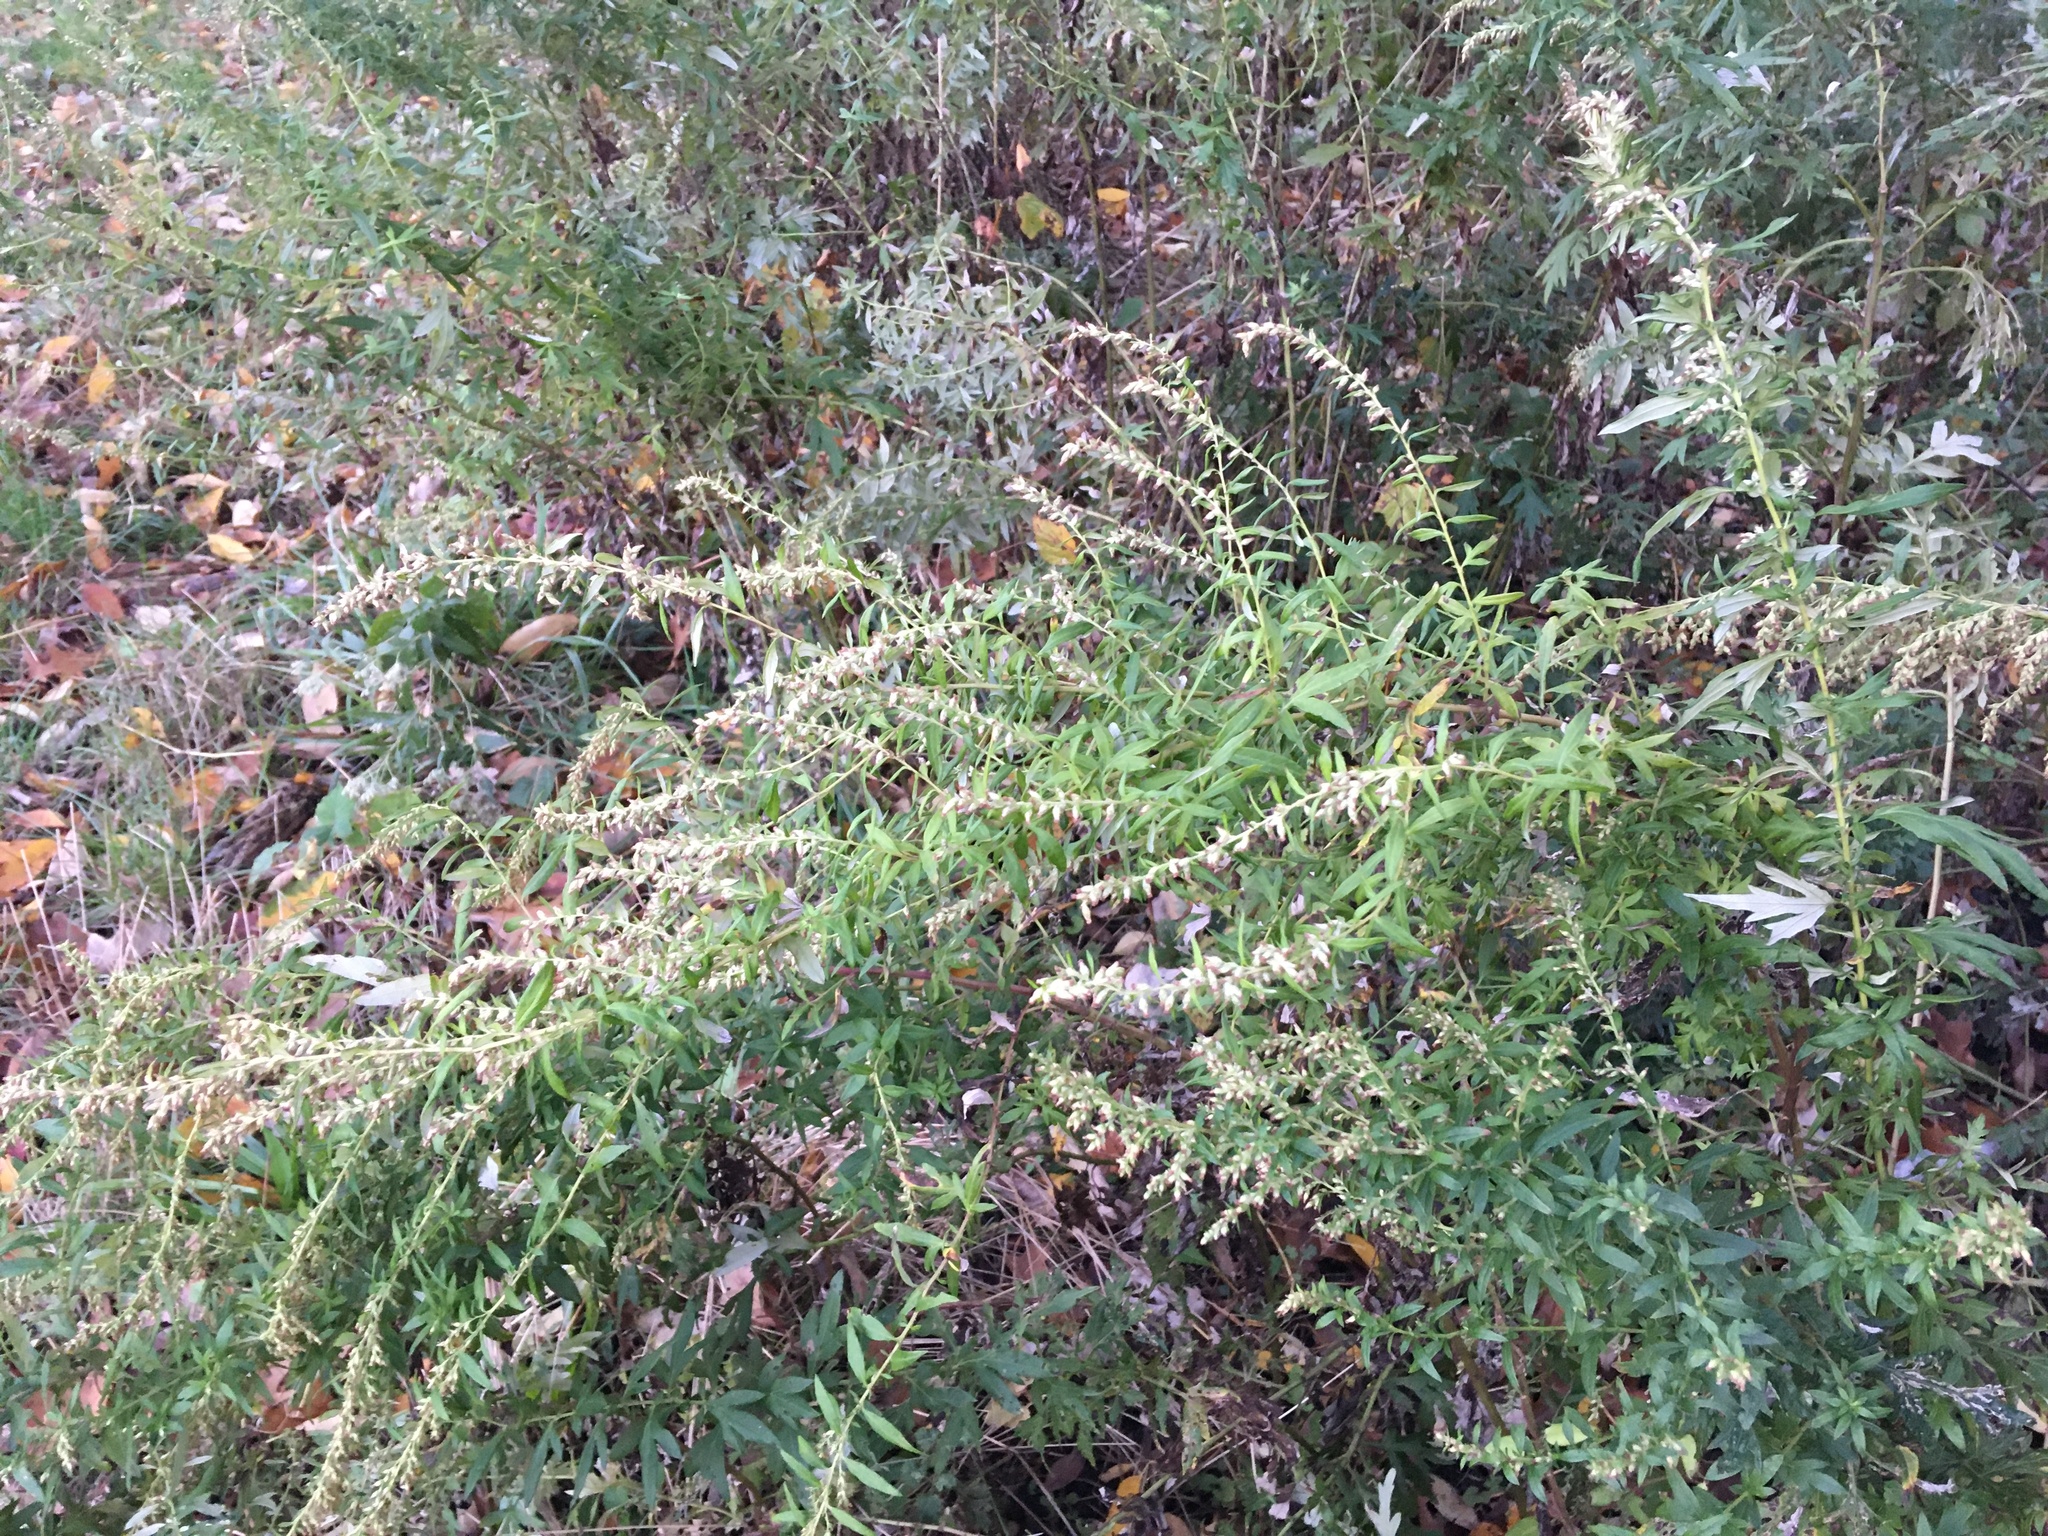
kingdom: Plantae
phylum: Tracheophyta
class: Magnoliopsida
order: Asterales
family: Asteraceae
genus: Artemisia
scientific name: Artemisia vulgaris
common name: Mugwort
